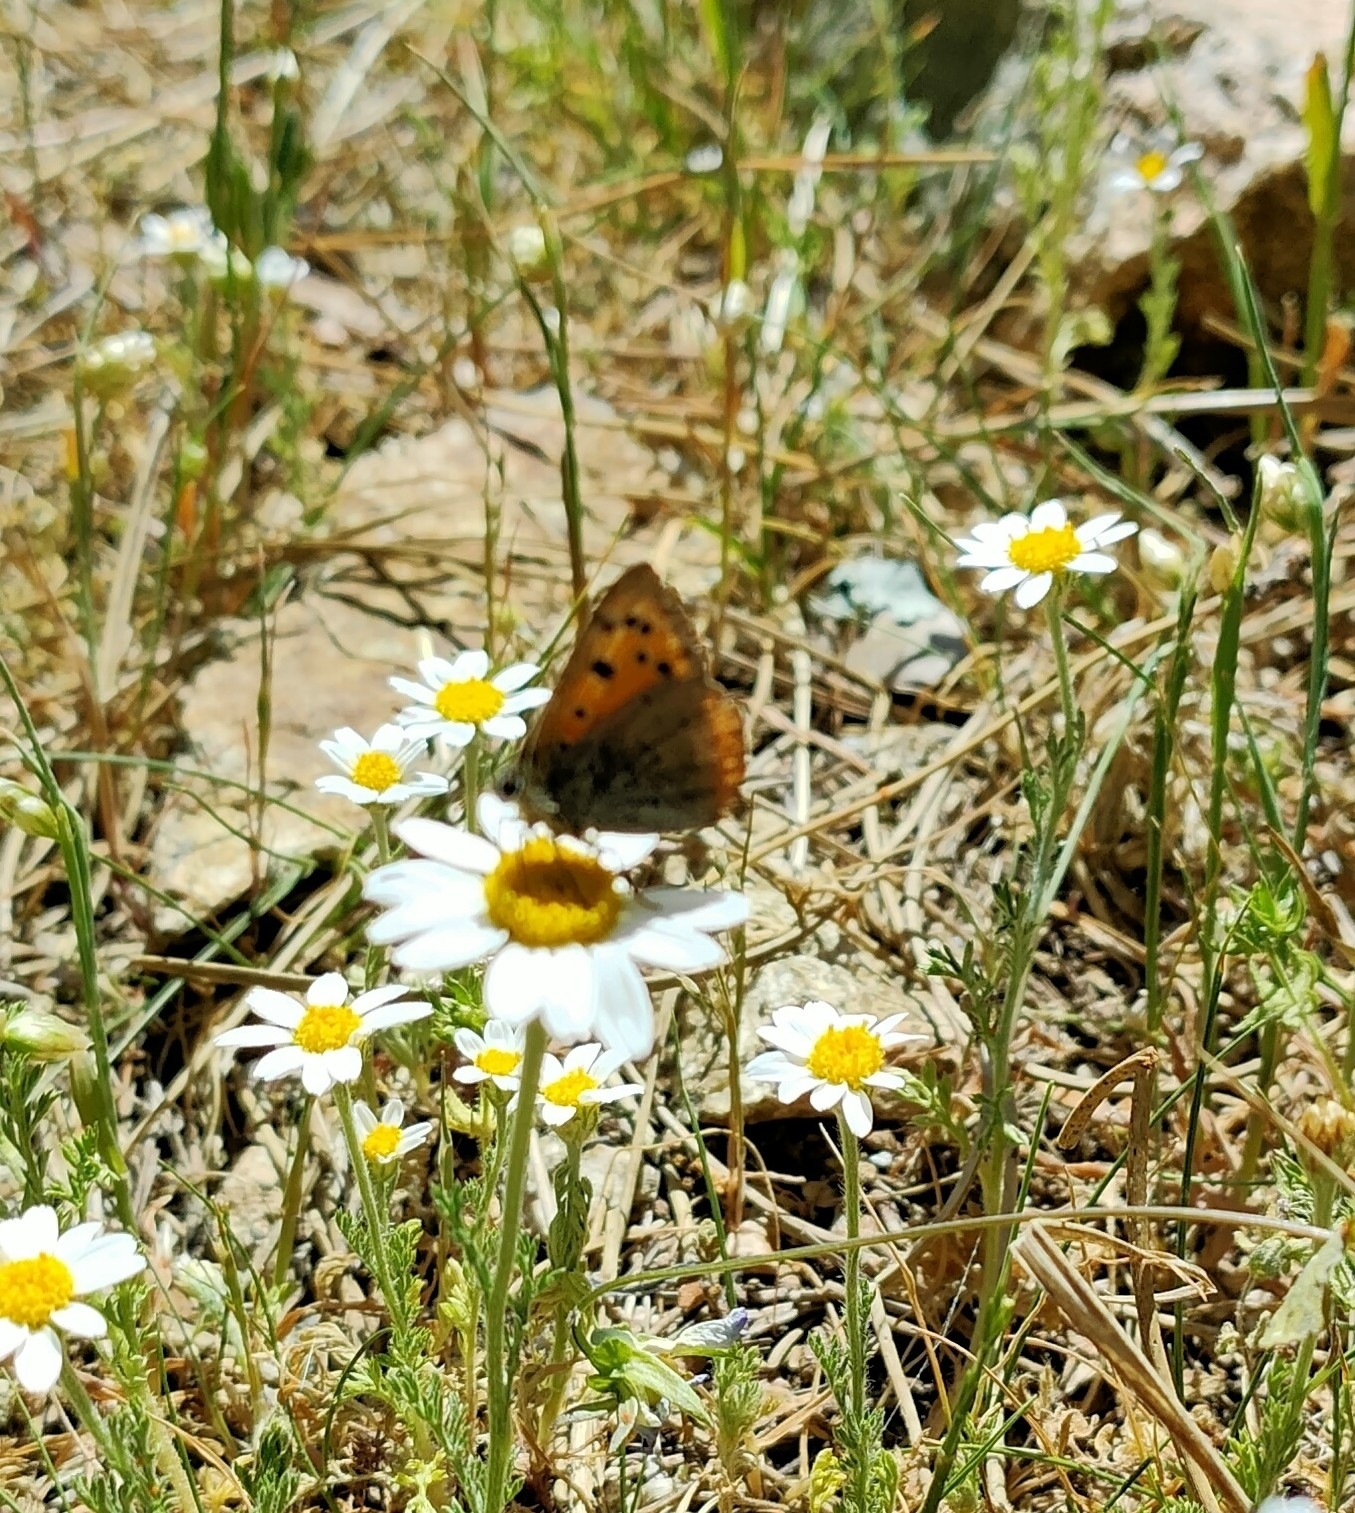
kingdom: Animalia
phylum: Arthropoda
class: Insecta
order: Lepidoptera
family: Lycaenidae
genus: Lycaena
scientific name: Lycaena phlaeas
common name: Small copper
